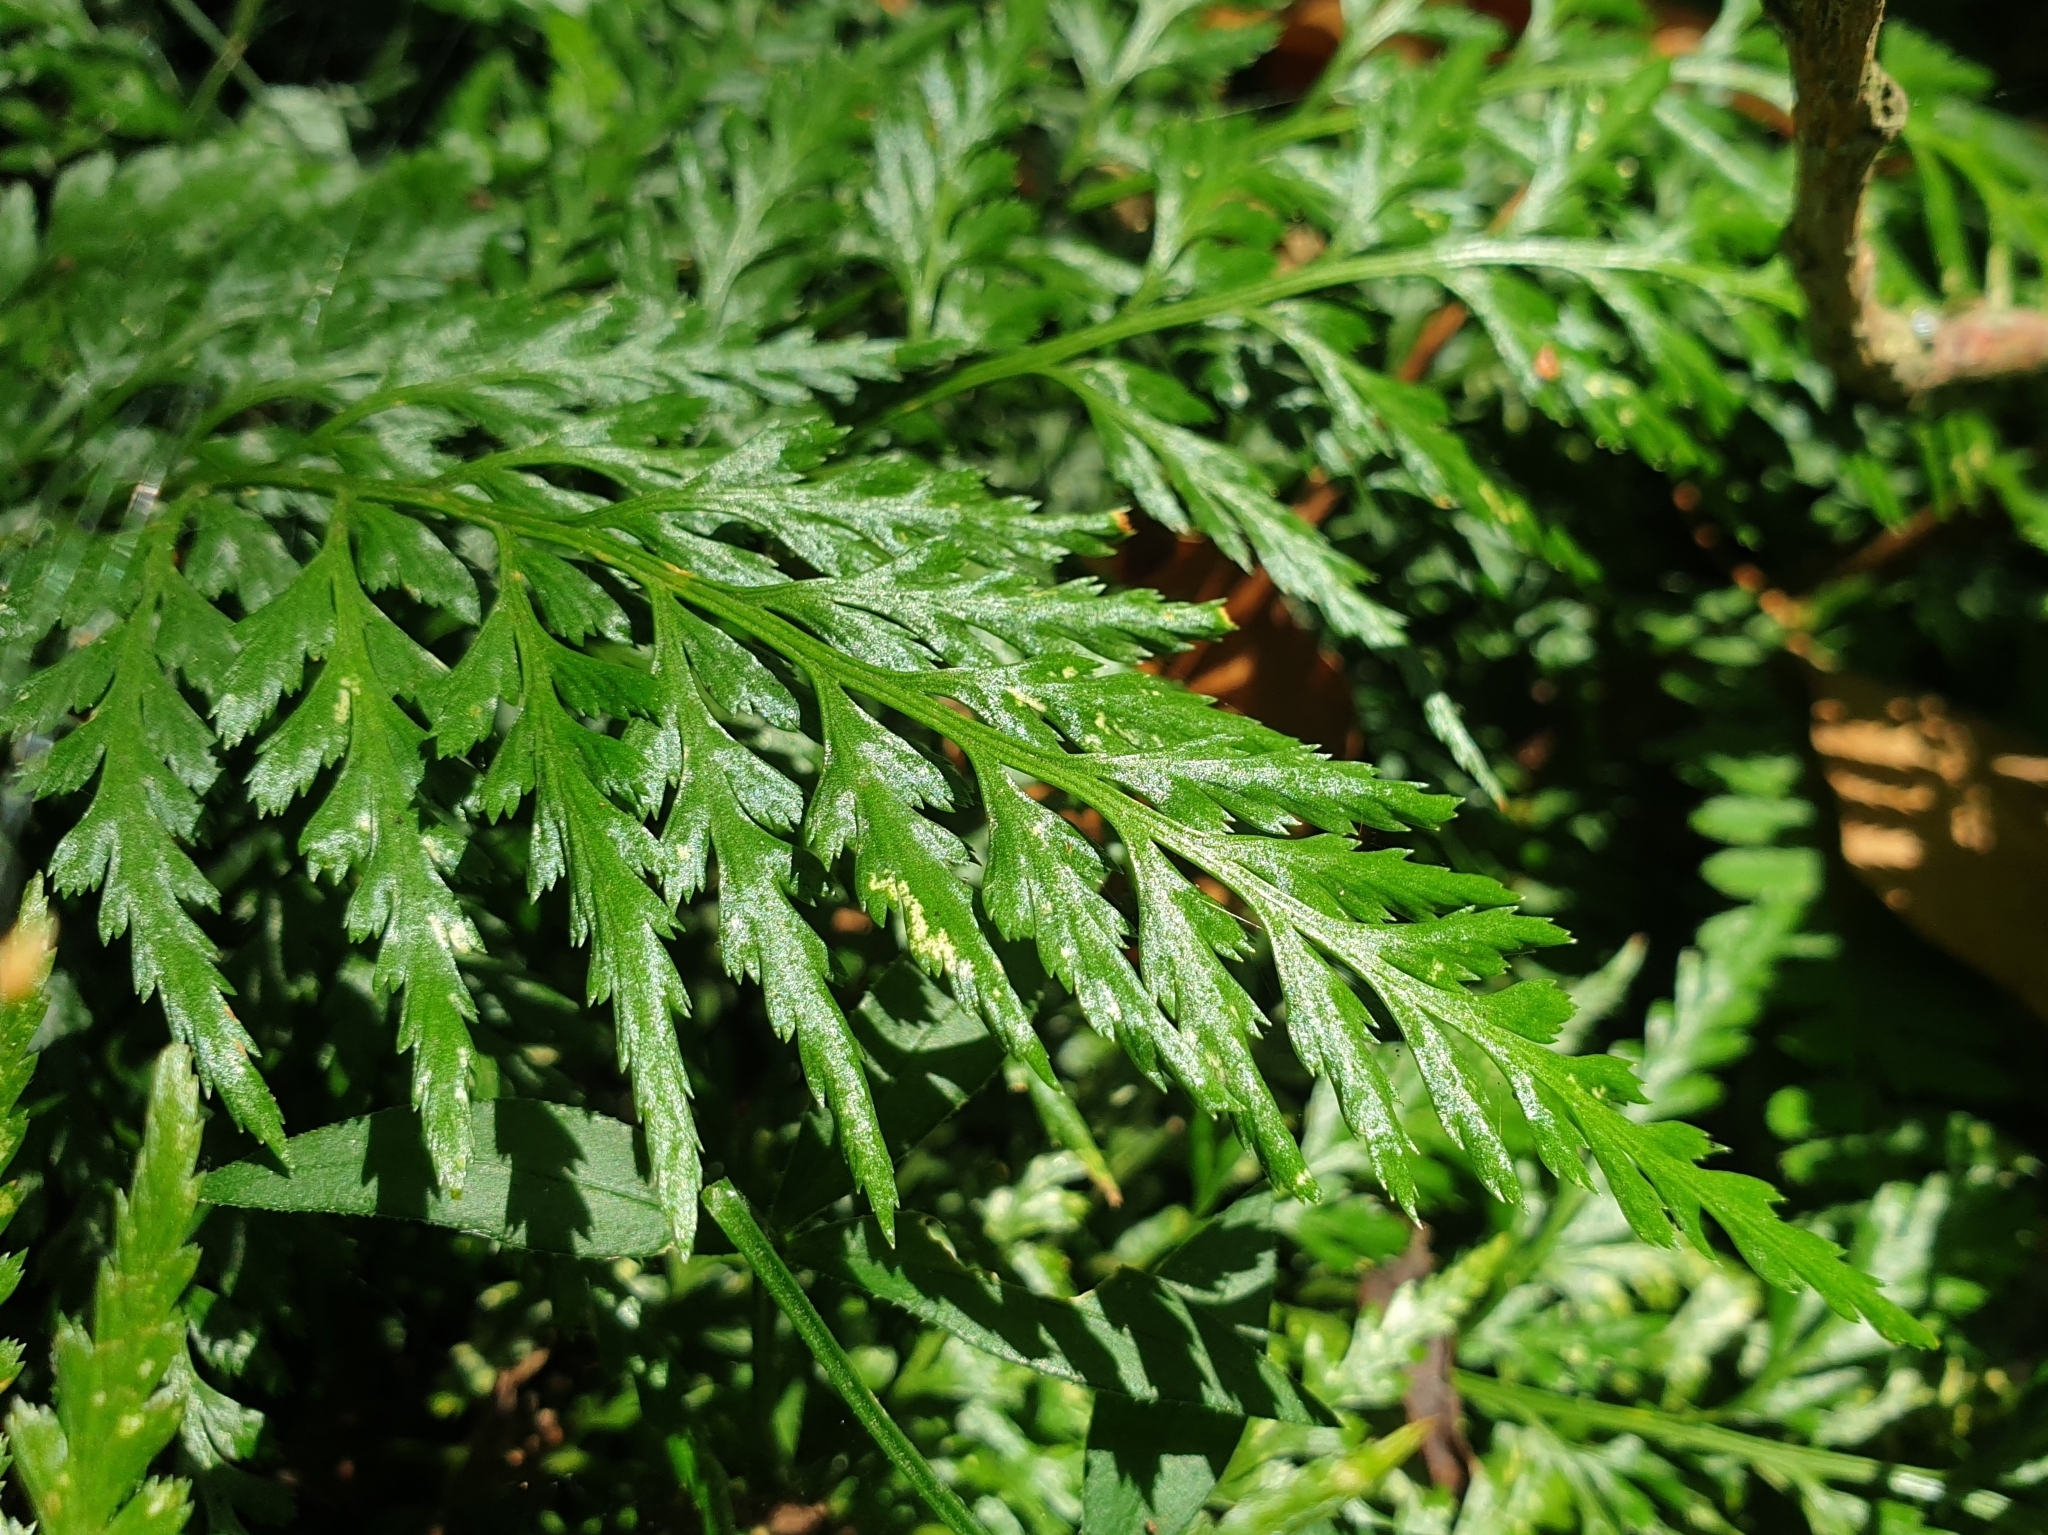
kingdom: Plantae
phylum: Tracheophyta
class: Polypodiopsida
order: Polypodiales
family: Aspleniaceae
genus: Asplenium
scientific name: Asplenium adiantum-nigrum
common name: Black spleenwort
